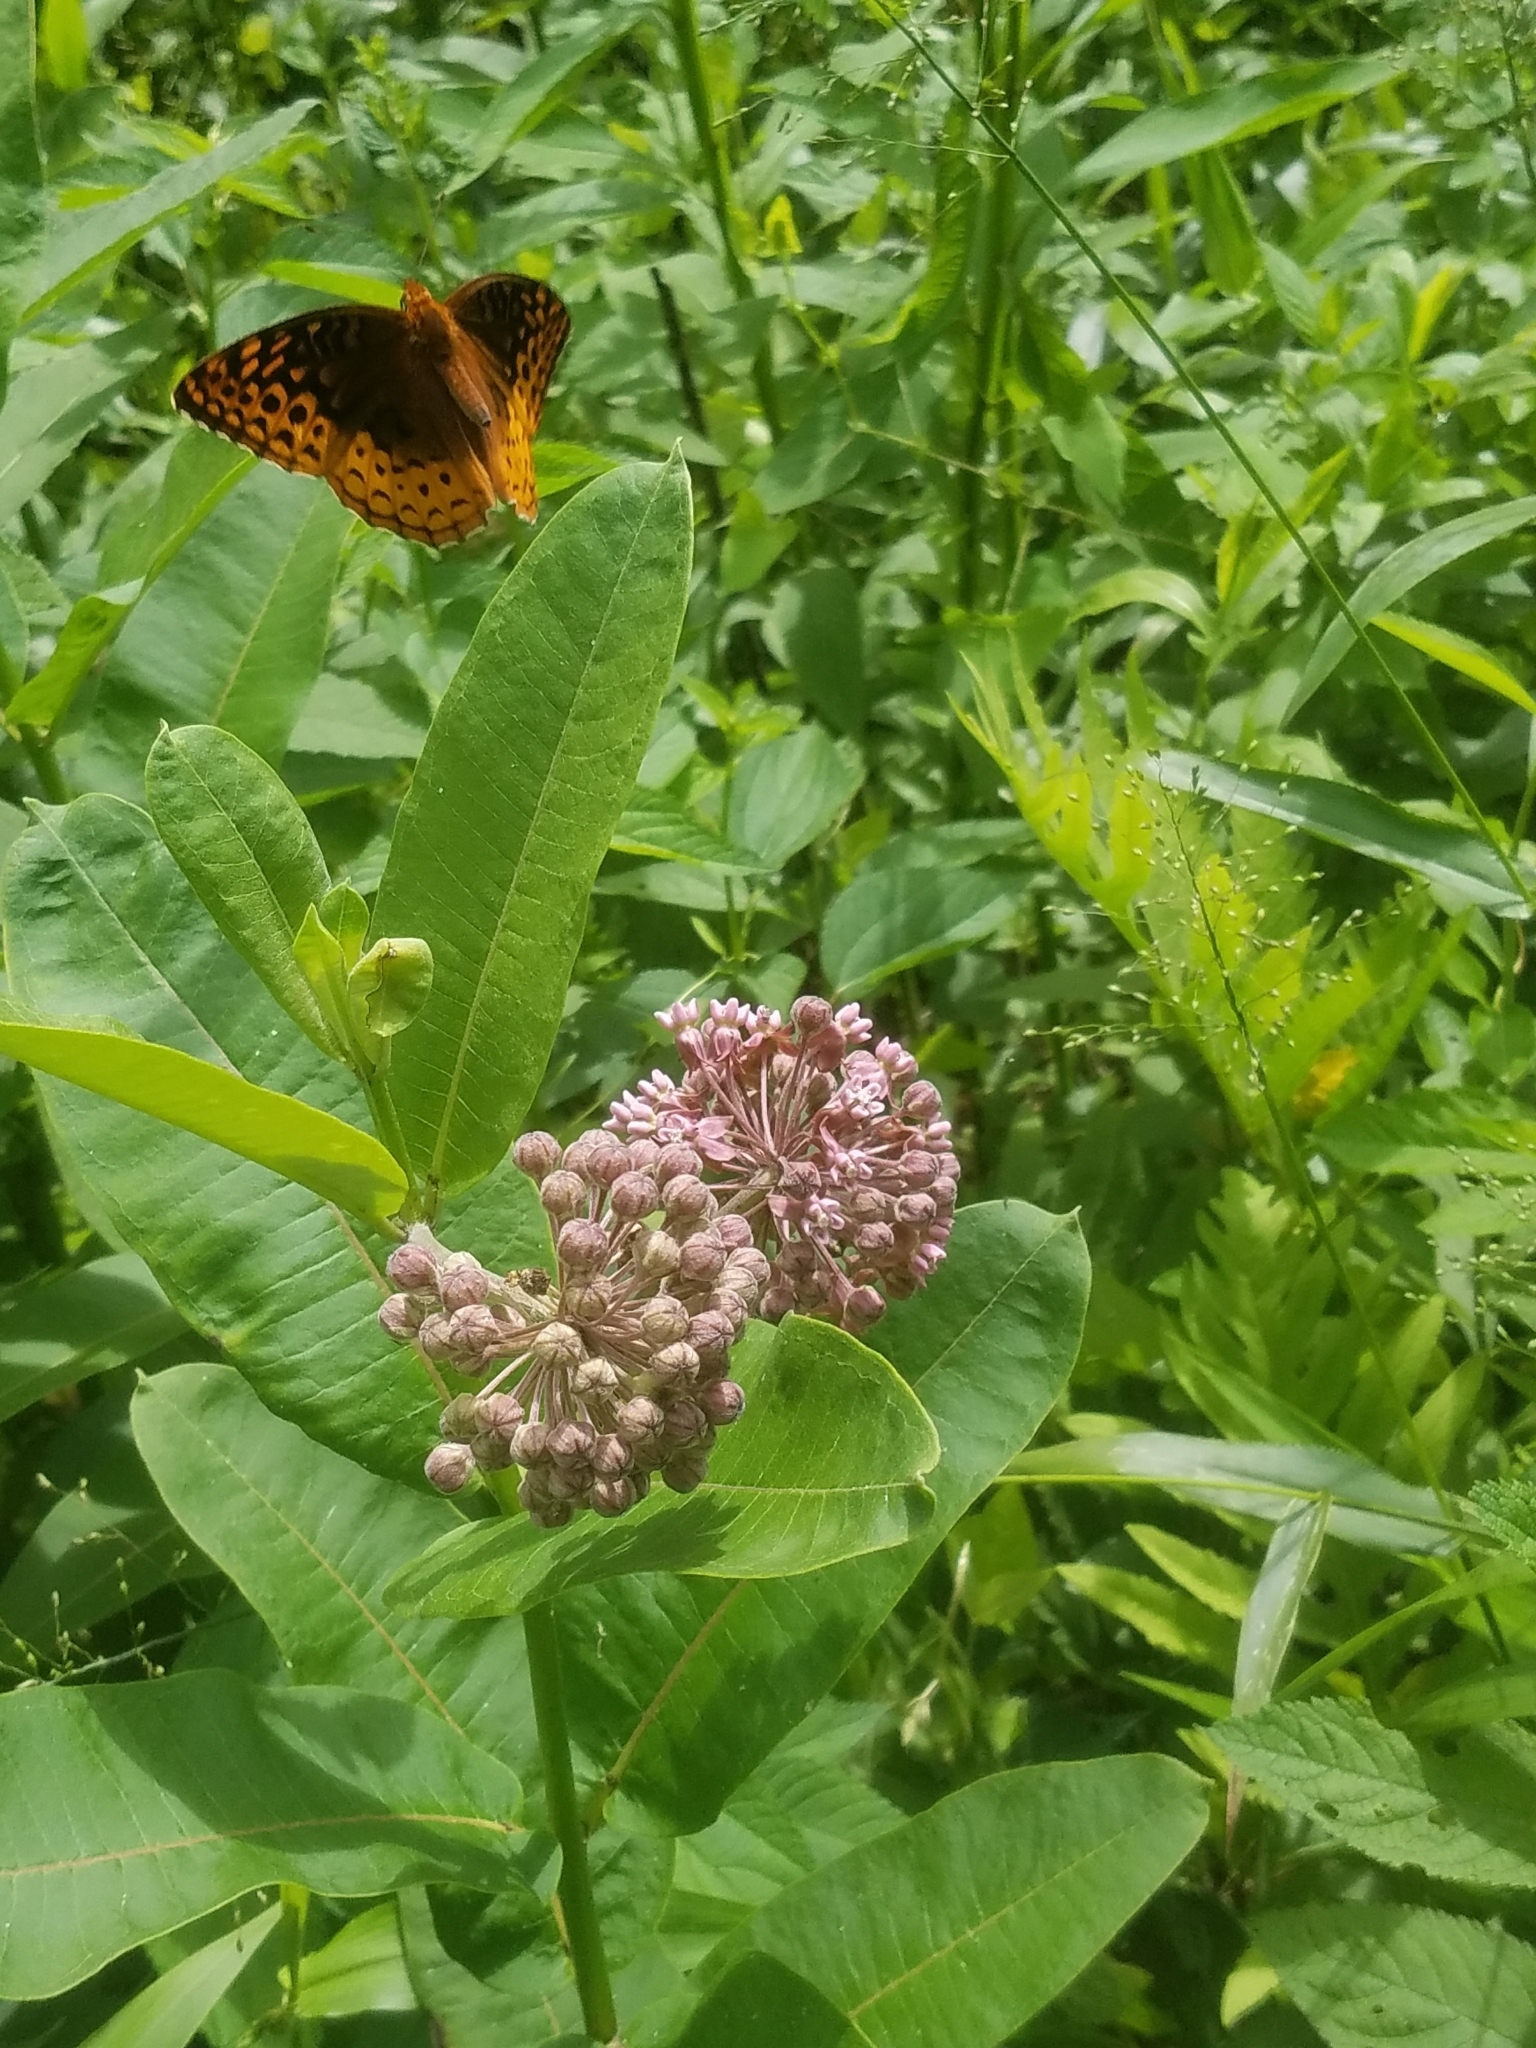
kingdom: Animalia
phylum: Arthropoda
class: Insecta
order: Lepidoptera
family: Nymphalidae
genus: Speyeria
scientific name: Speyeria cybele
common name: Great spangled fritillary
